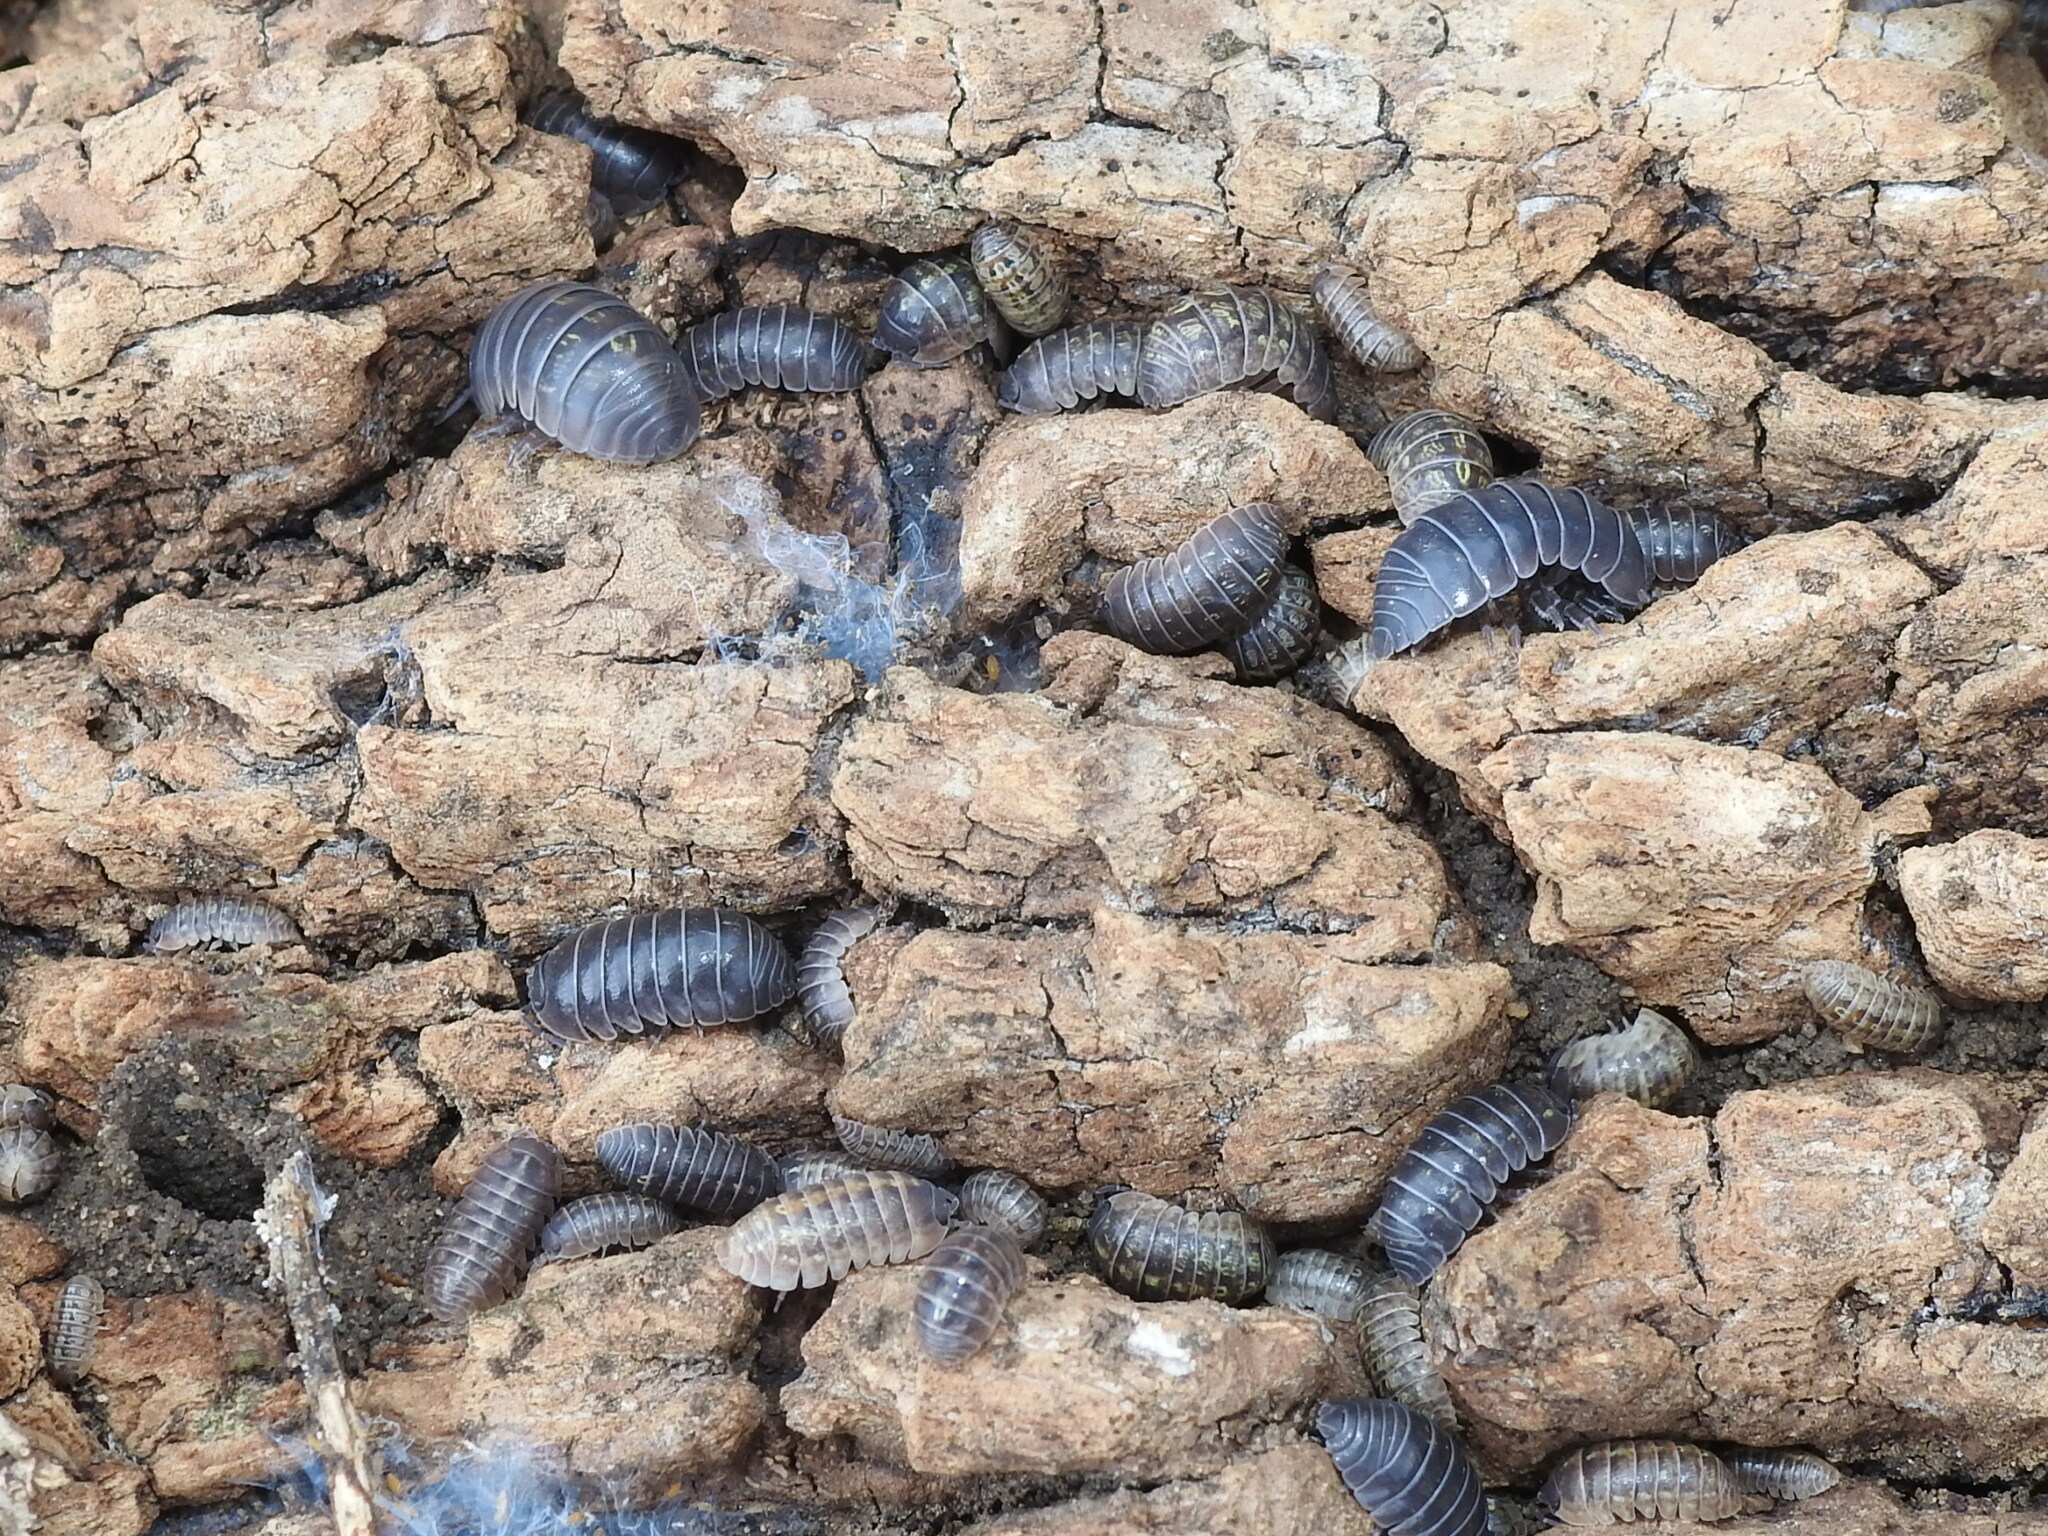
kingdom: Animalia
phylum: Arthropoda
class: Malacostraca
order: Isopoda
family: Armadillidiidae
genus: Armadillidium
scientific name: Armadillidium vulgare
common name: Common pill woodlouse
